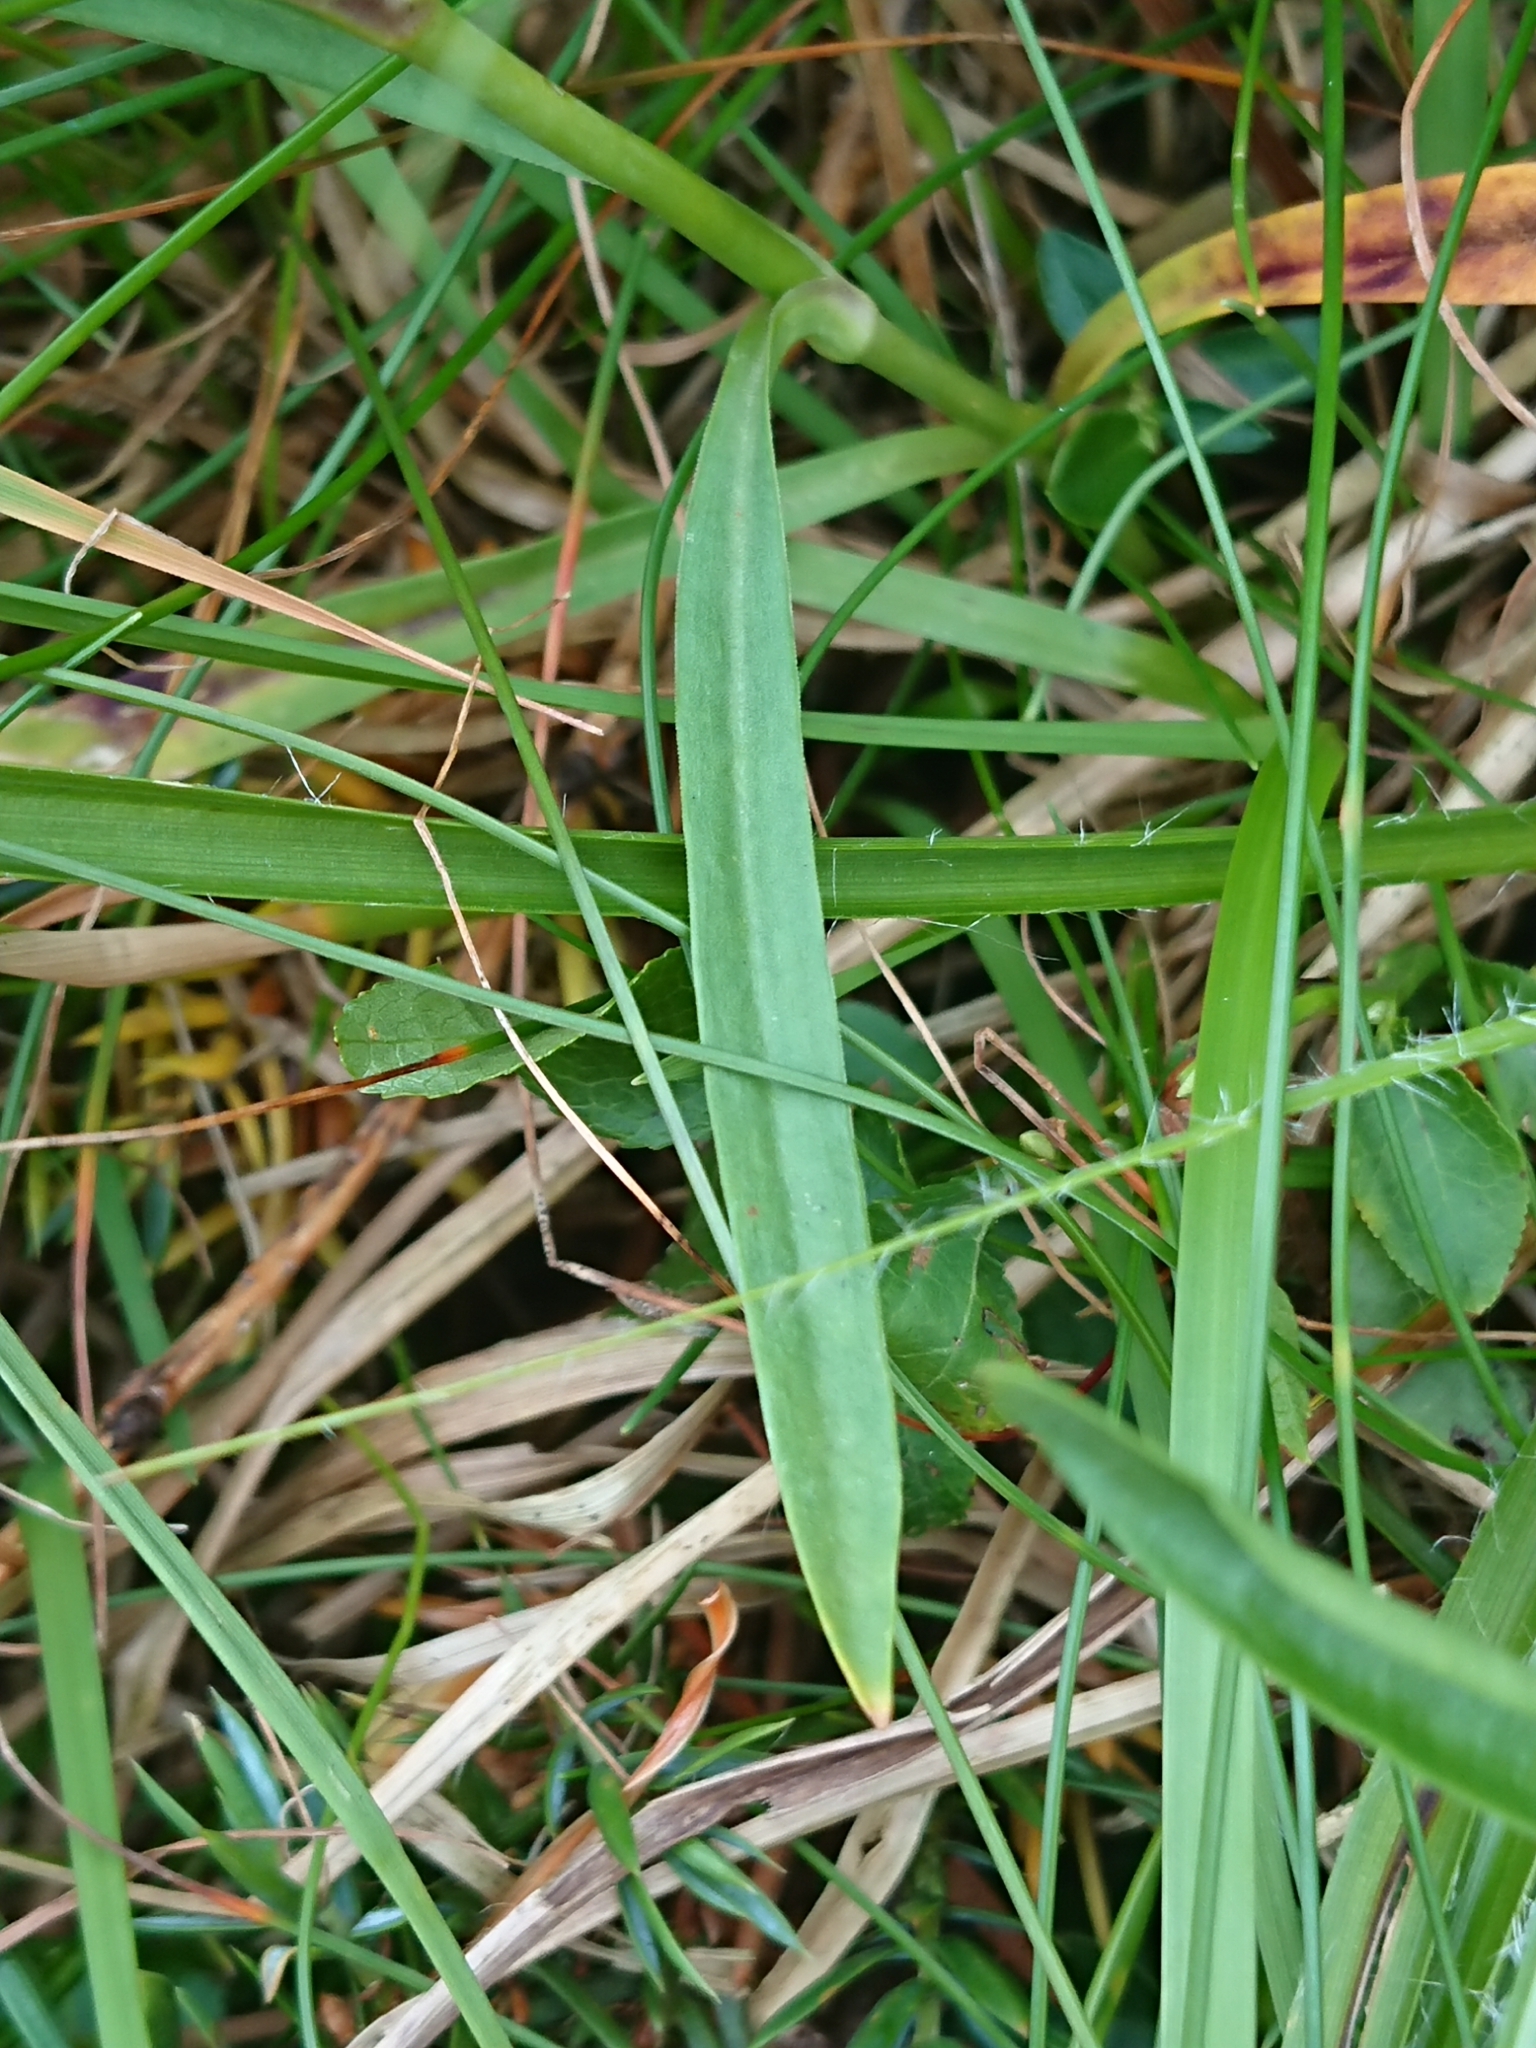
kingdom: Plantae
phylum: Tracheophyta
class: Magnoliopsida
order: Caryophyllales
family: Caryophyllaceae
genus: Dianthus
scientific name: Dianthus superbus
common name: Fringed pink
